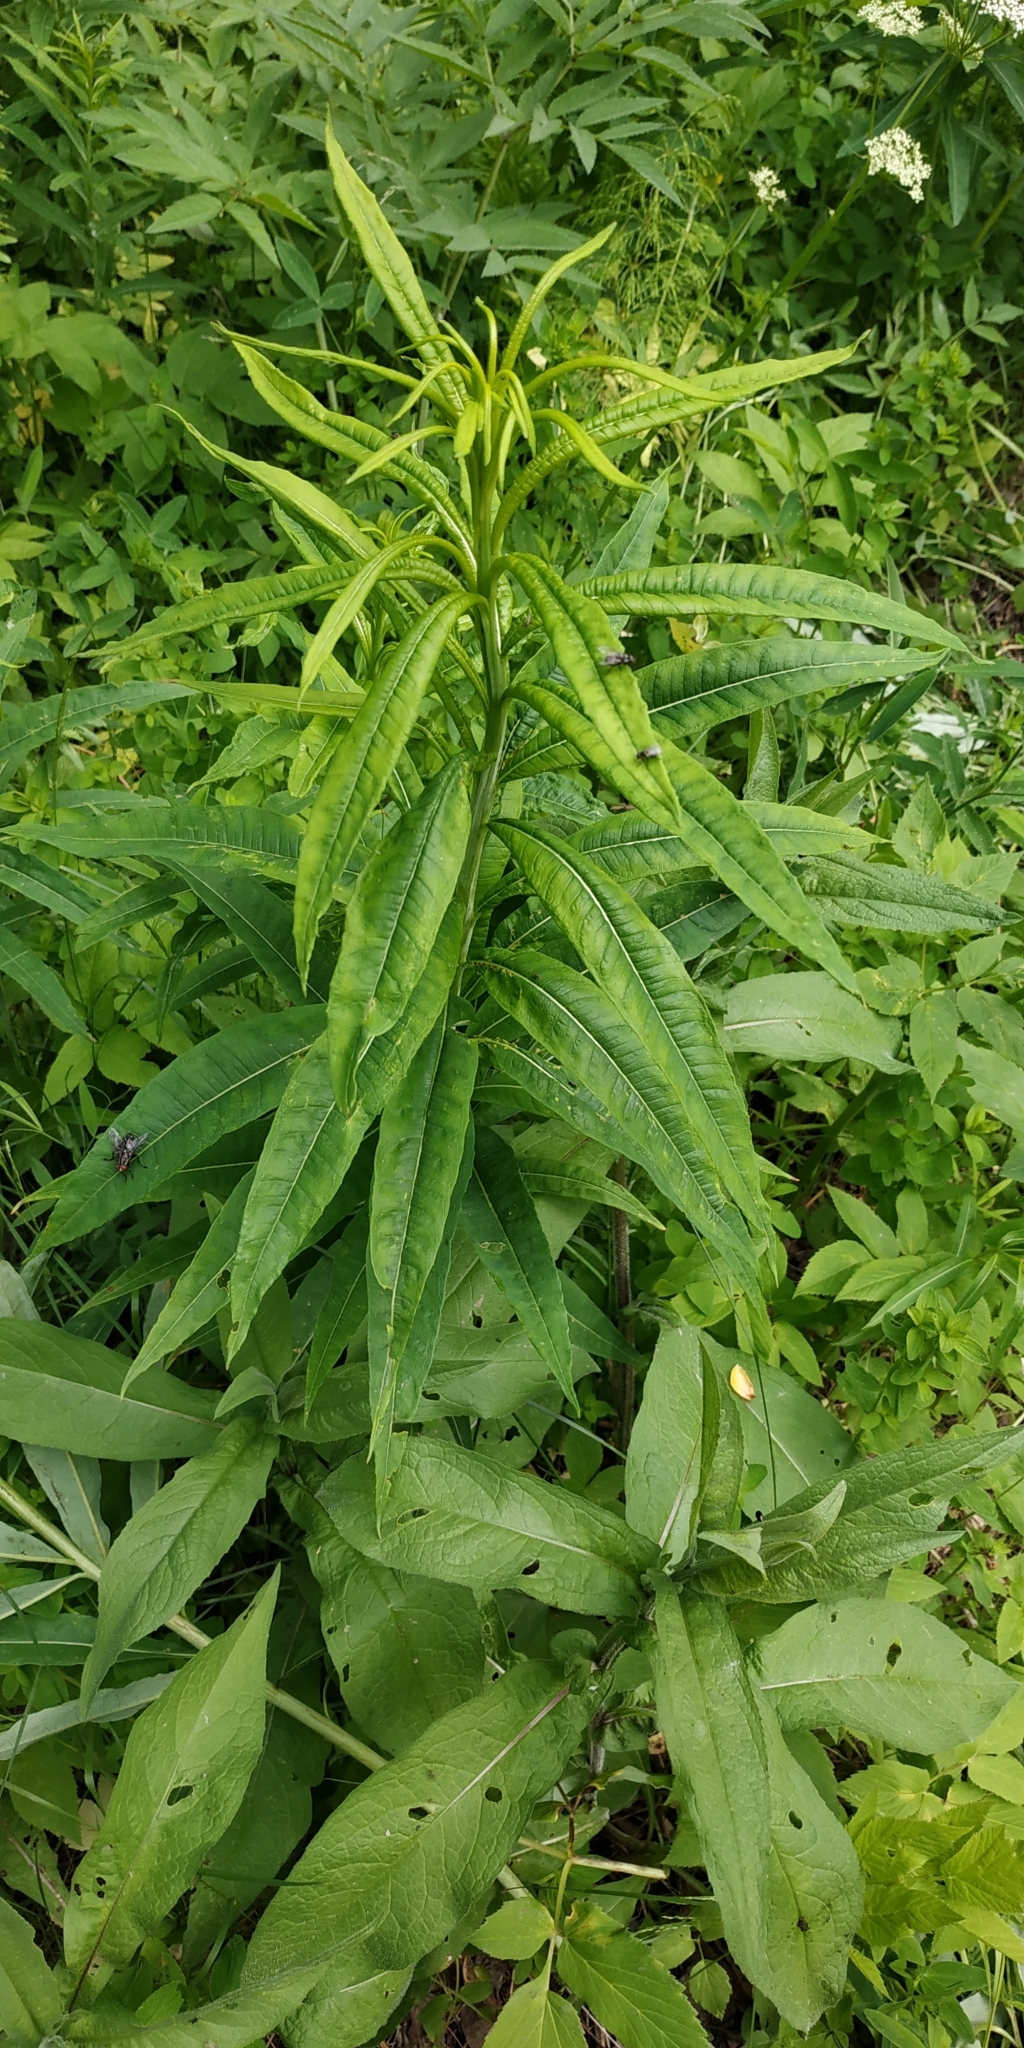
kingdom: Plantae
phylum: Tracheophyta
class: Magnoliopsida
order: Myrtales
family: Onagraceae
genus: Chamaenerion
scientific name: Chamaenerion angustifolium
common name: Fireweed
